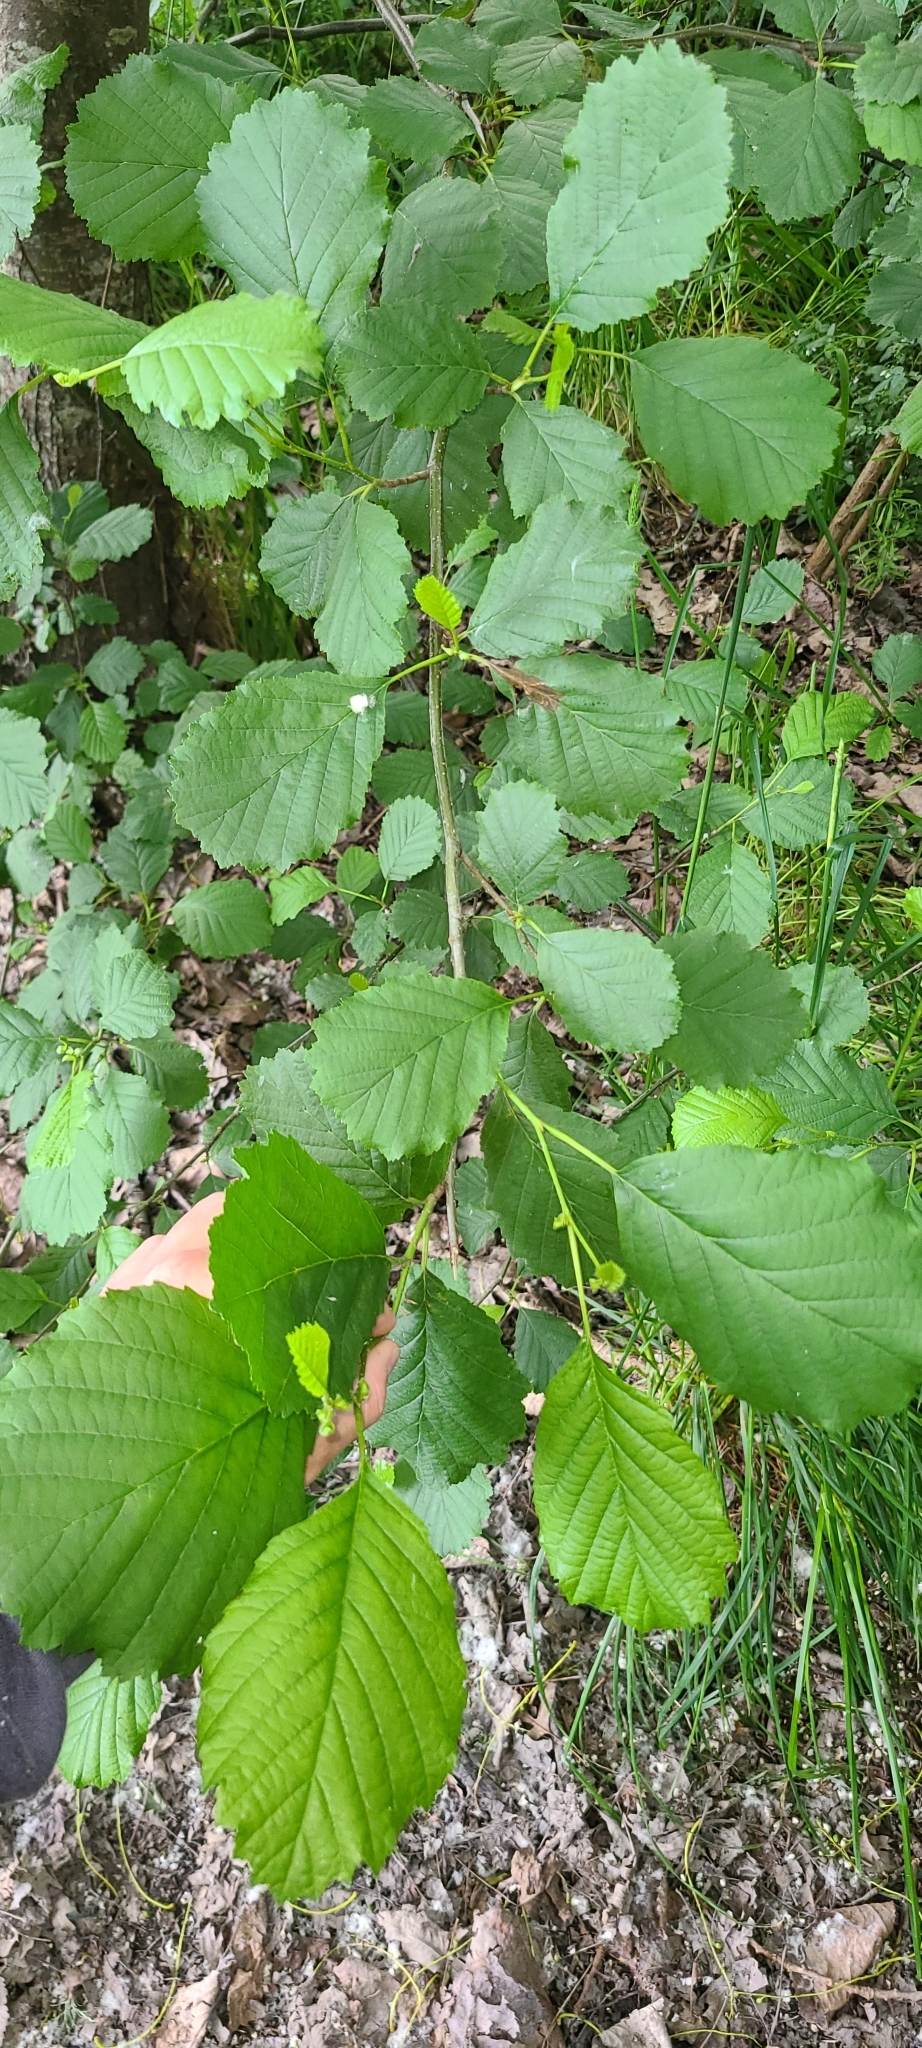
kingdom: Plantae
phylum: Tracheophyta
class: Magnoliopsida
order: Fagales
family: Betulaceae
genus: Alnus
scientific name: Alnus glutinosa
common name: Black alder
